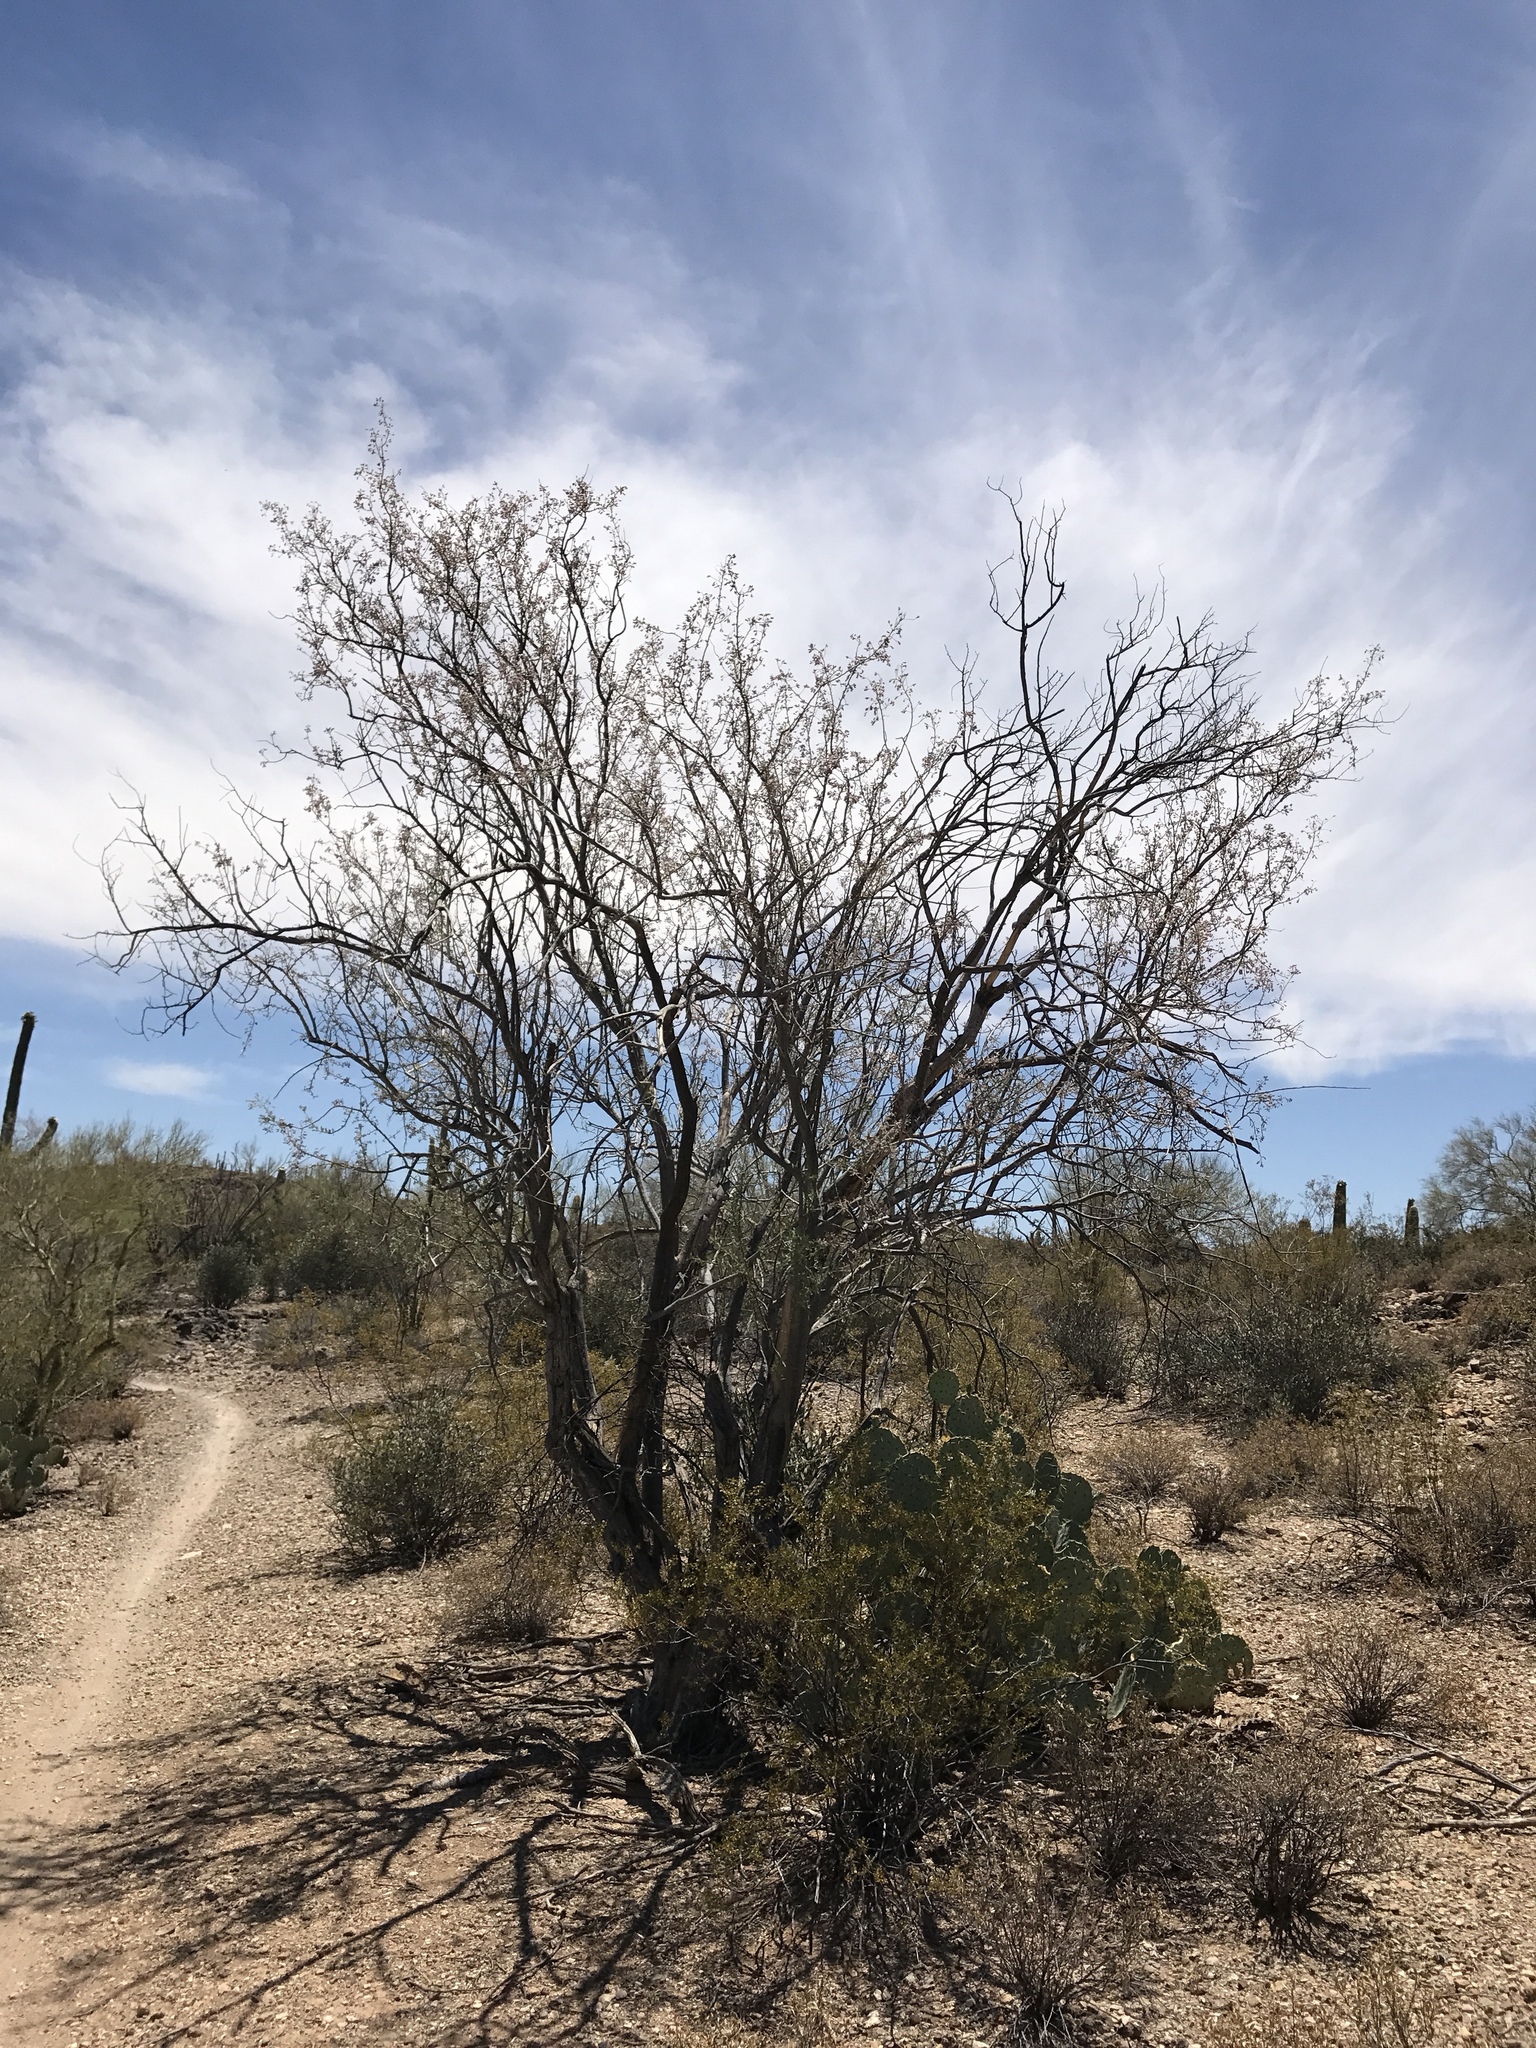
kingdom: Plantae
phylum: Tracheophyta
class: Magnoliopsida
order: Fabales
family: Fabaceae
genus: Olneya
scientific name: Olneya tesota
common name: Desert ironwood
